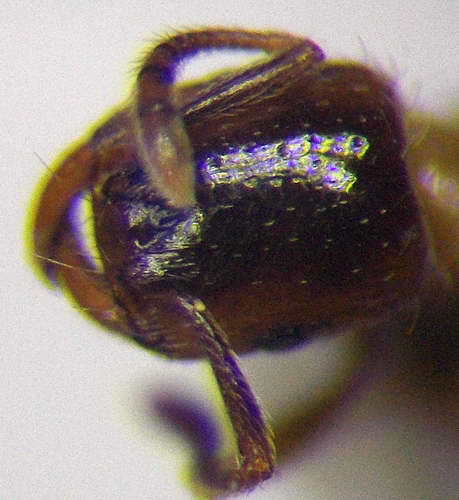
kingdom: Animalia
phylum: Arthropoda
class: Insecta
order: Hymenoptera
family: Formicidae
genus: Strongylognathus
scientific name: Strongylognathus christophi
